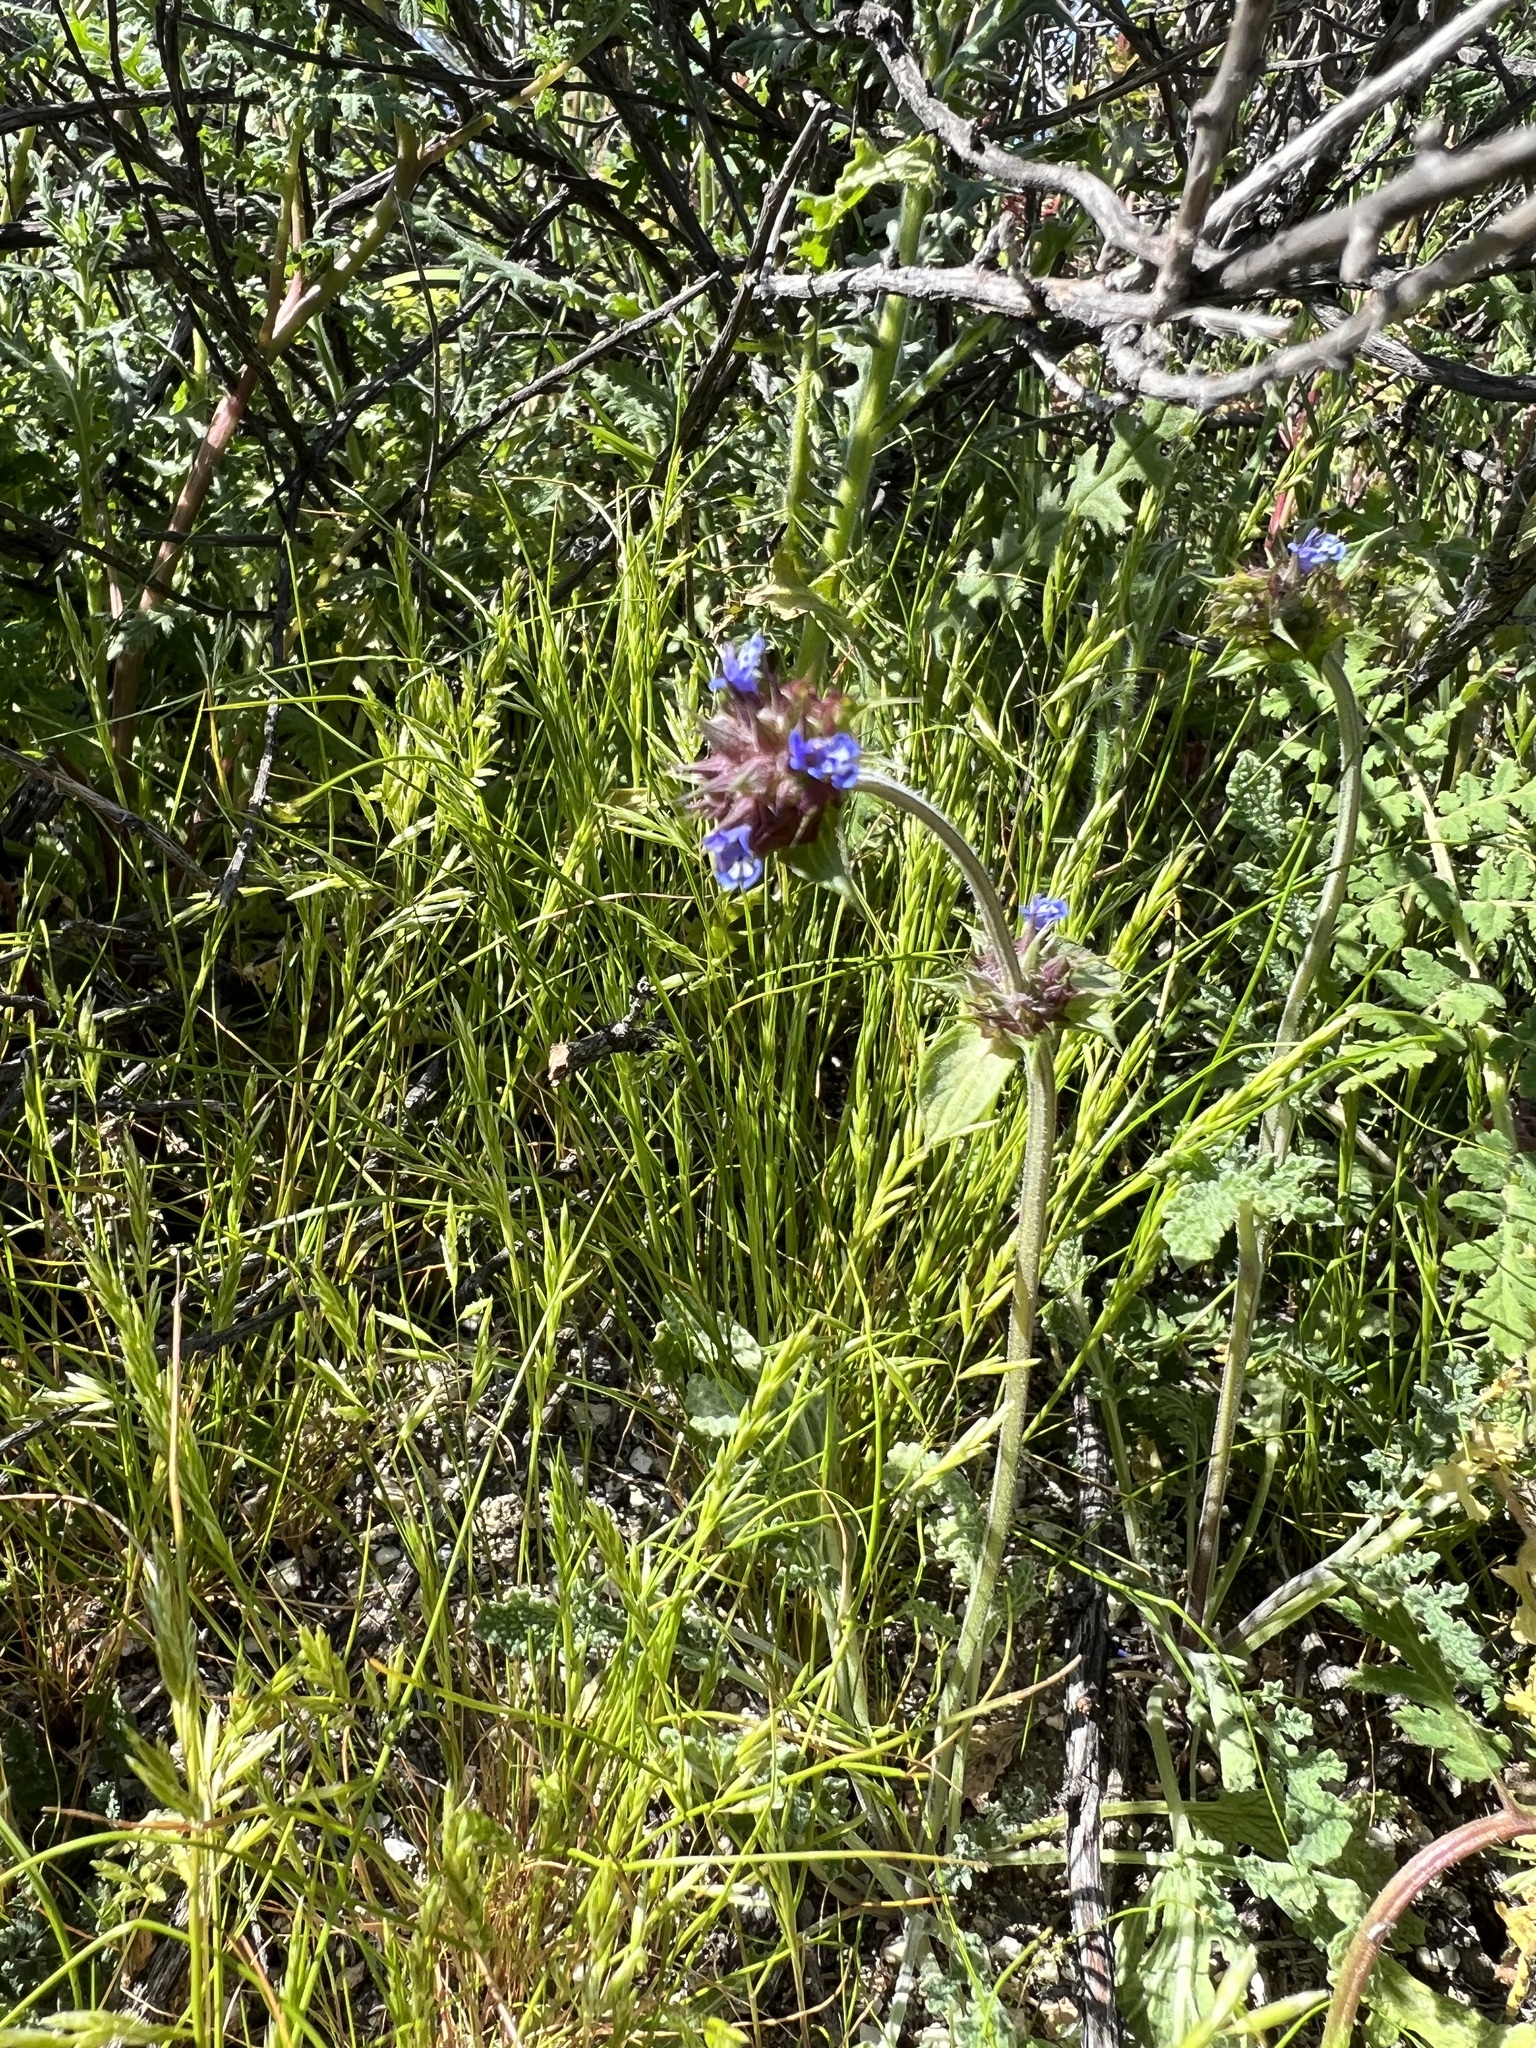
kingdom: Plantae
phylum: Tracheophyta
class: Magnoliopsida
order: Lamiales
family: Lamiaceae
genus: Salvia
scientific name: Salvia columbariae
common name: Chia
